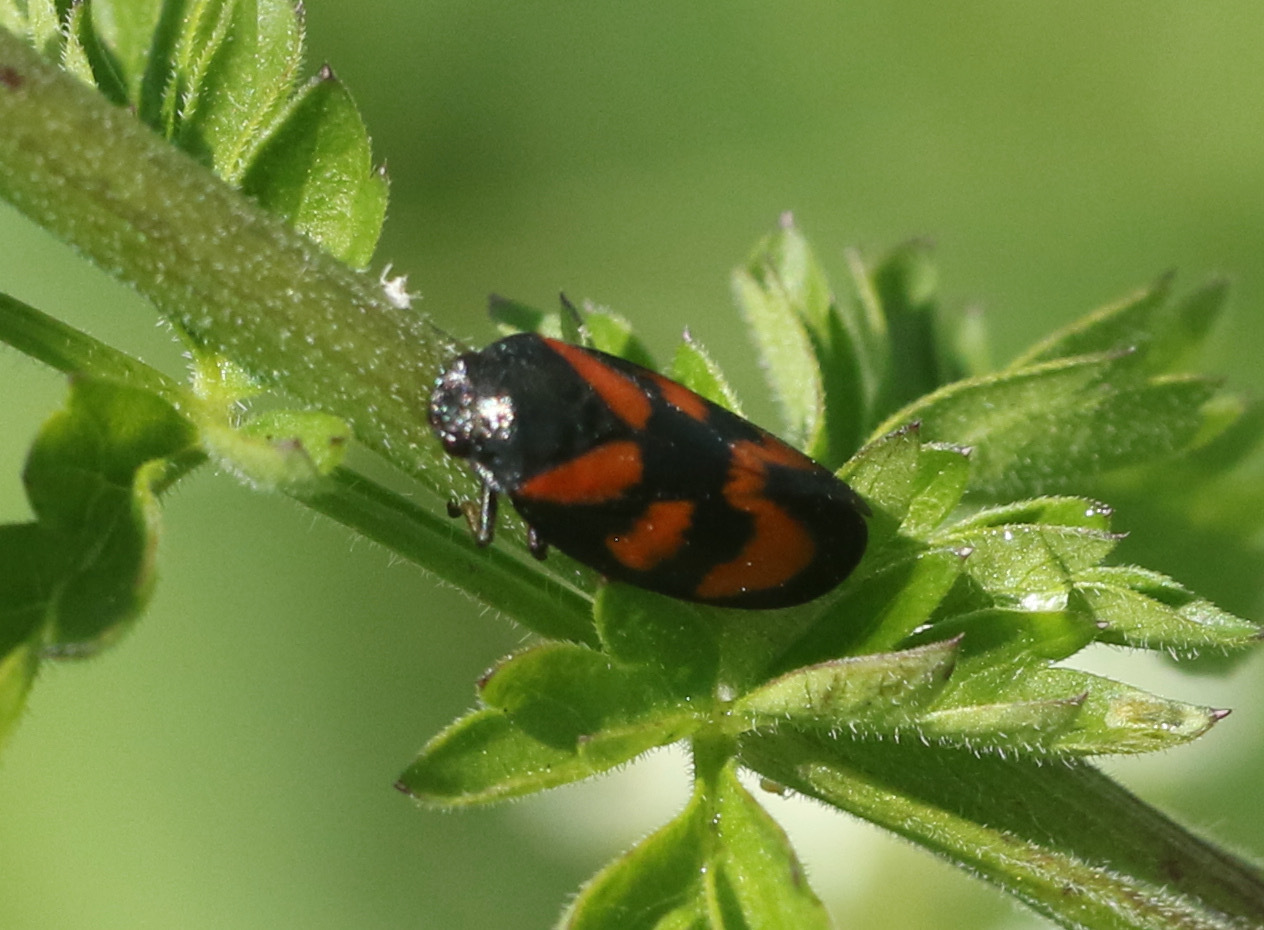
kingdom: Animalia
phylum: Arthropoda
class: Insecta
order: Hemiptera
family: Cercopidae
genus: Cercopis
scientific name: Cercopis vulnerata
